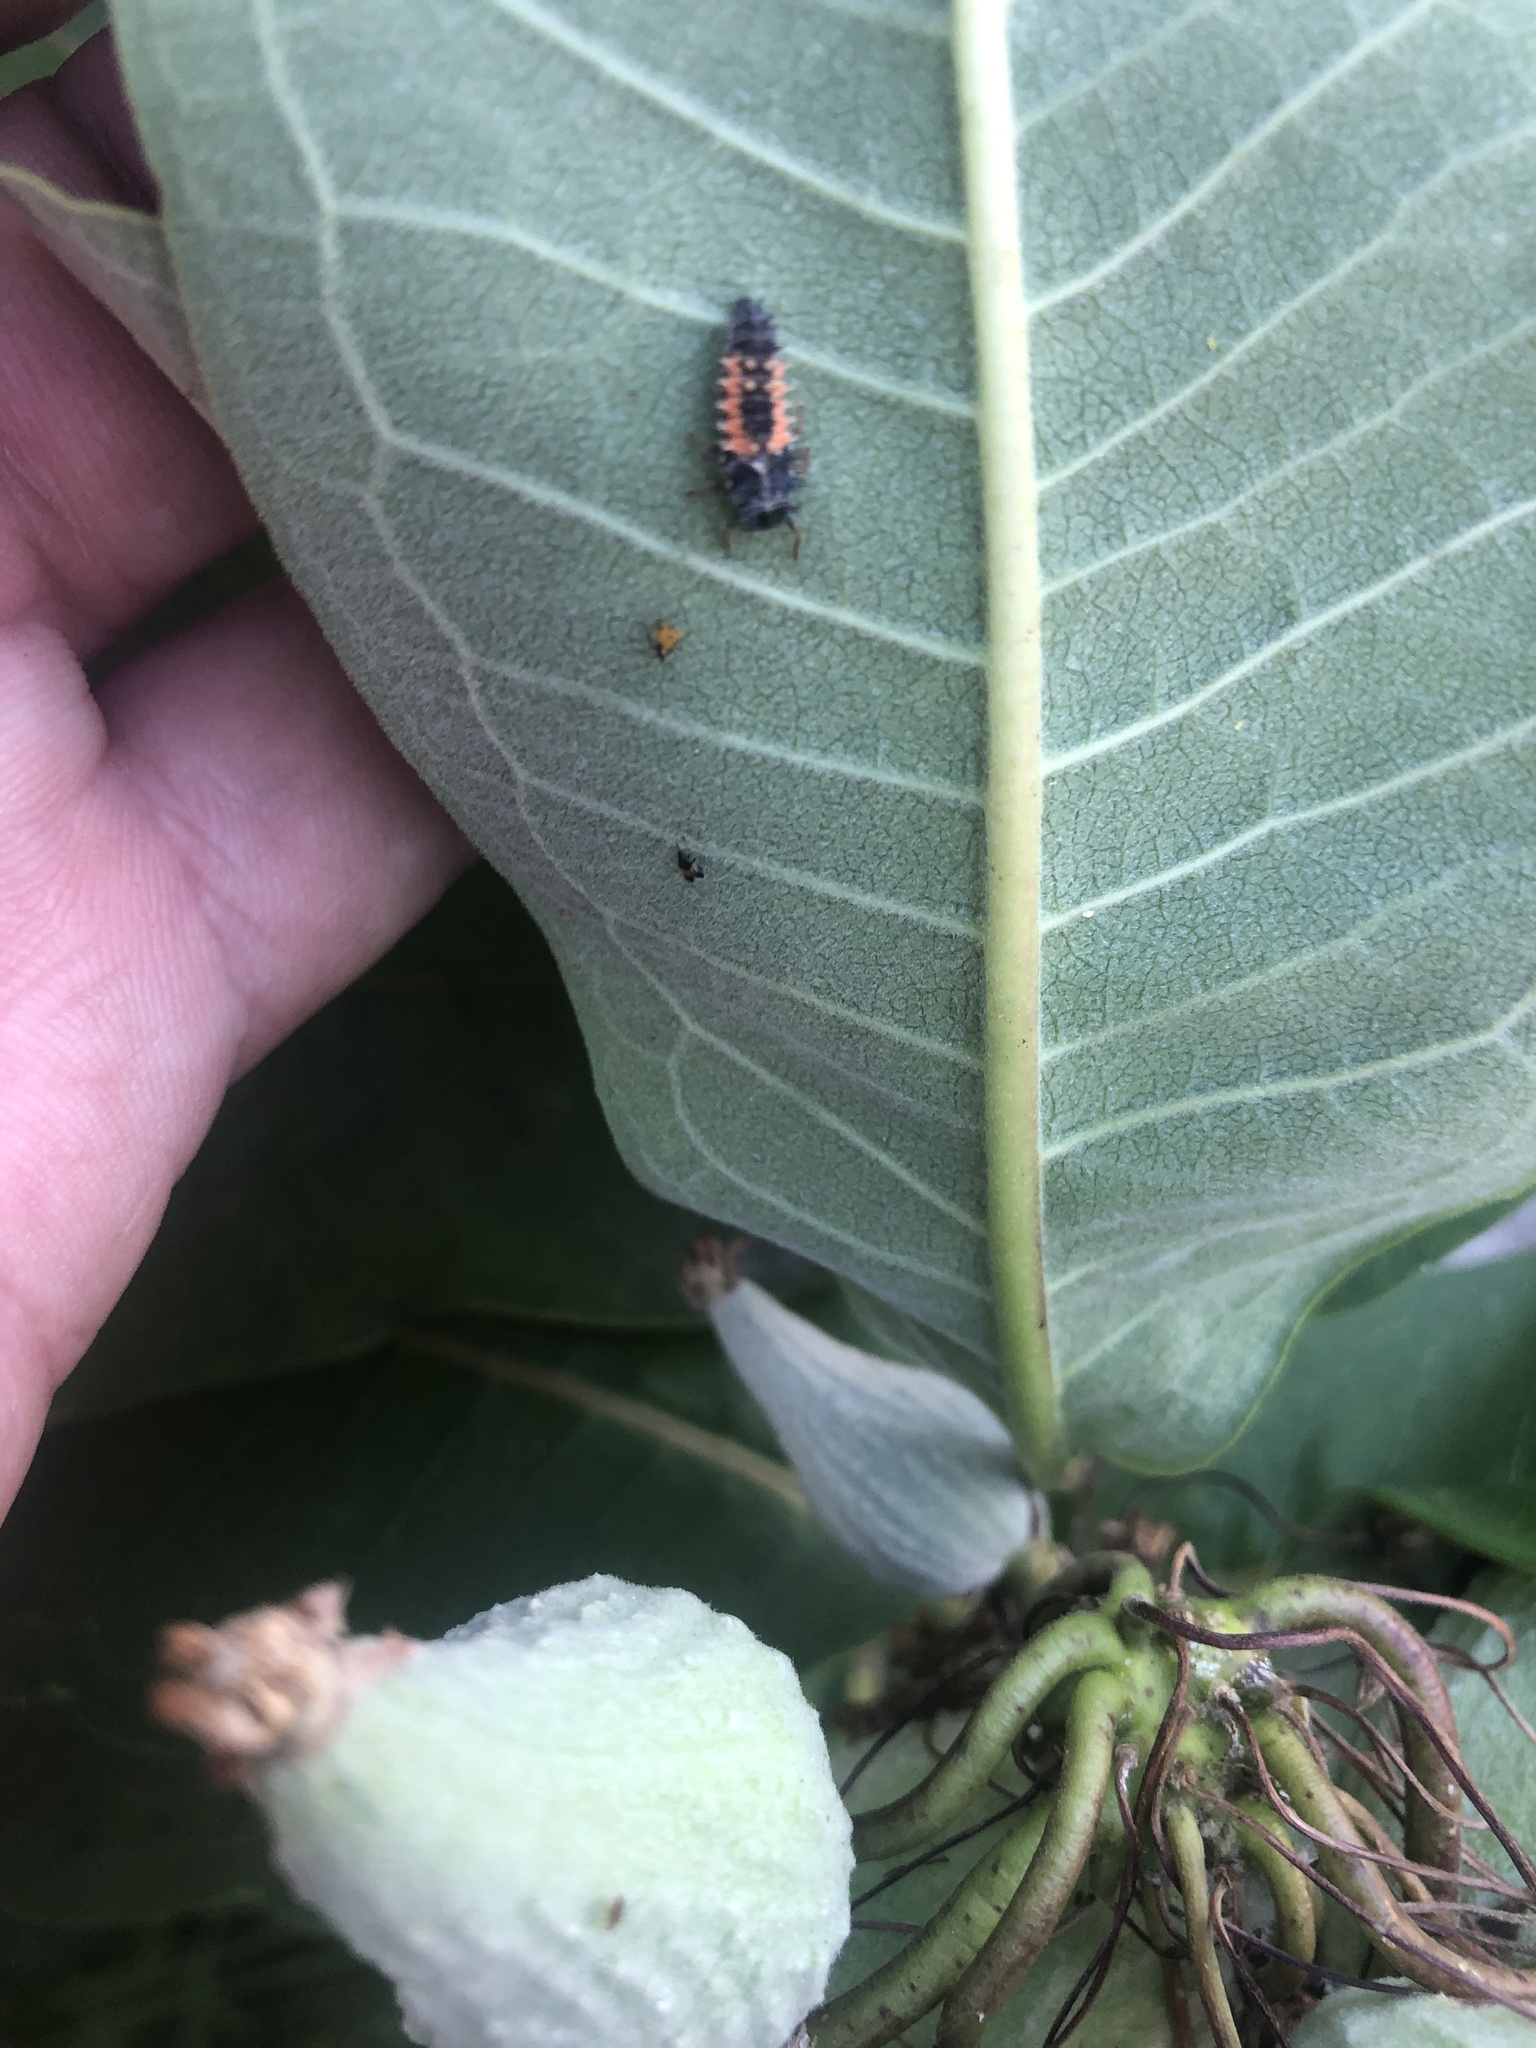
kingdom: Animalia
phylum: Arthropoda
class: Insecta
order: Coleoptera
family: Coccinellidae
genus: Harmonia
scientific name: Harmonia axyridis
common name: Harlequin ladybird
